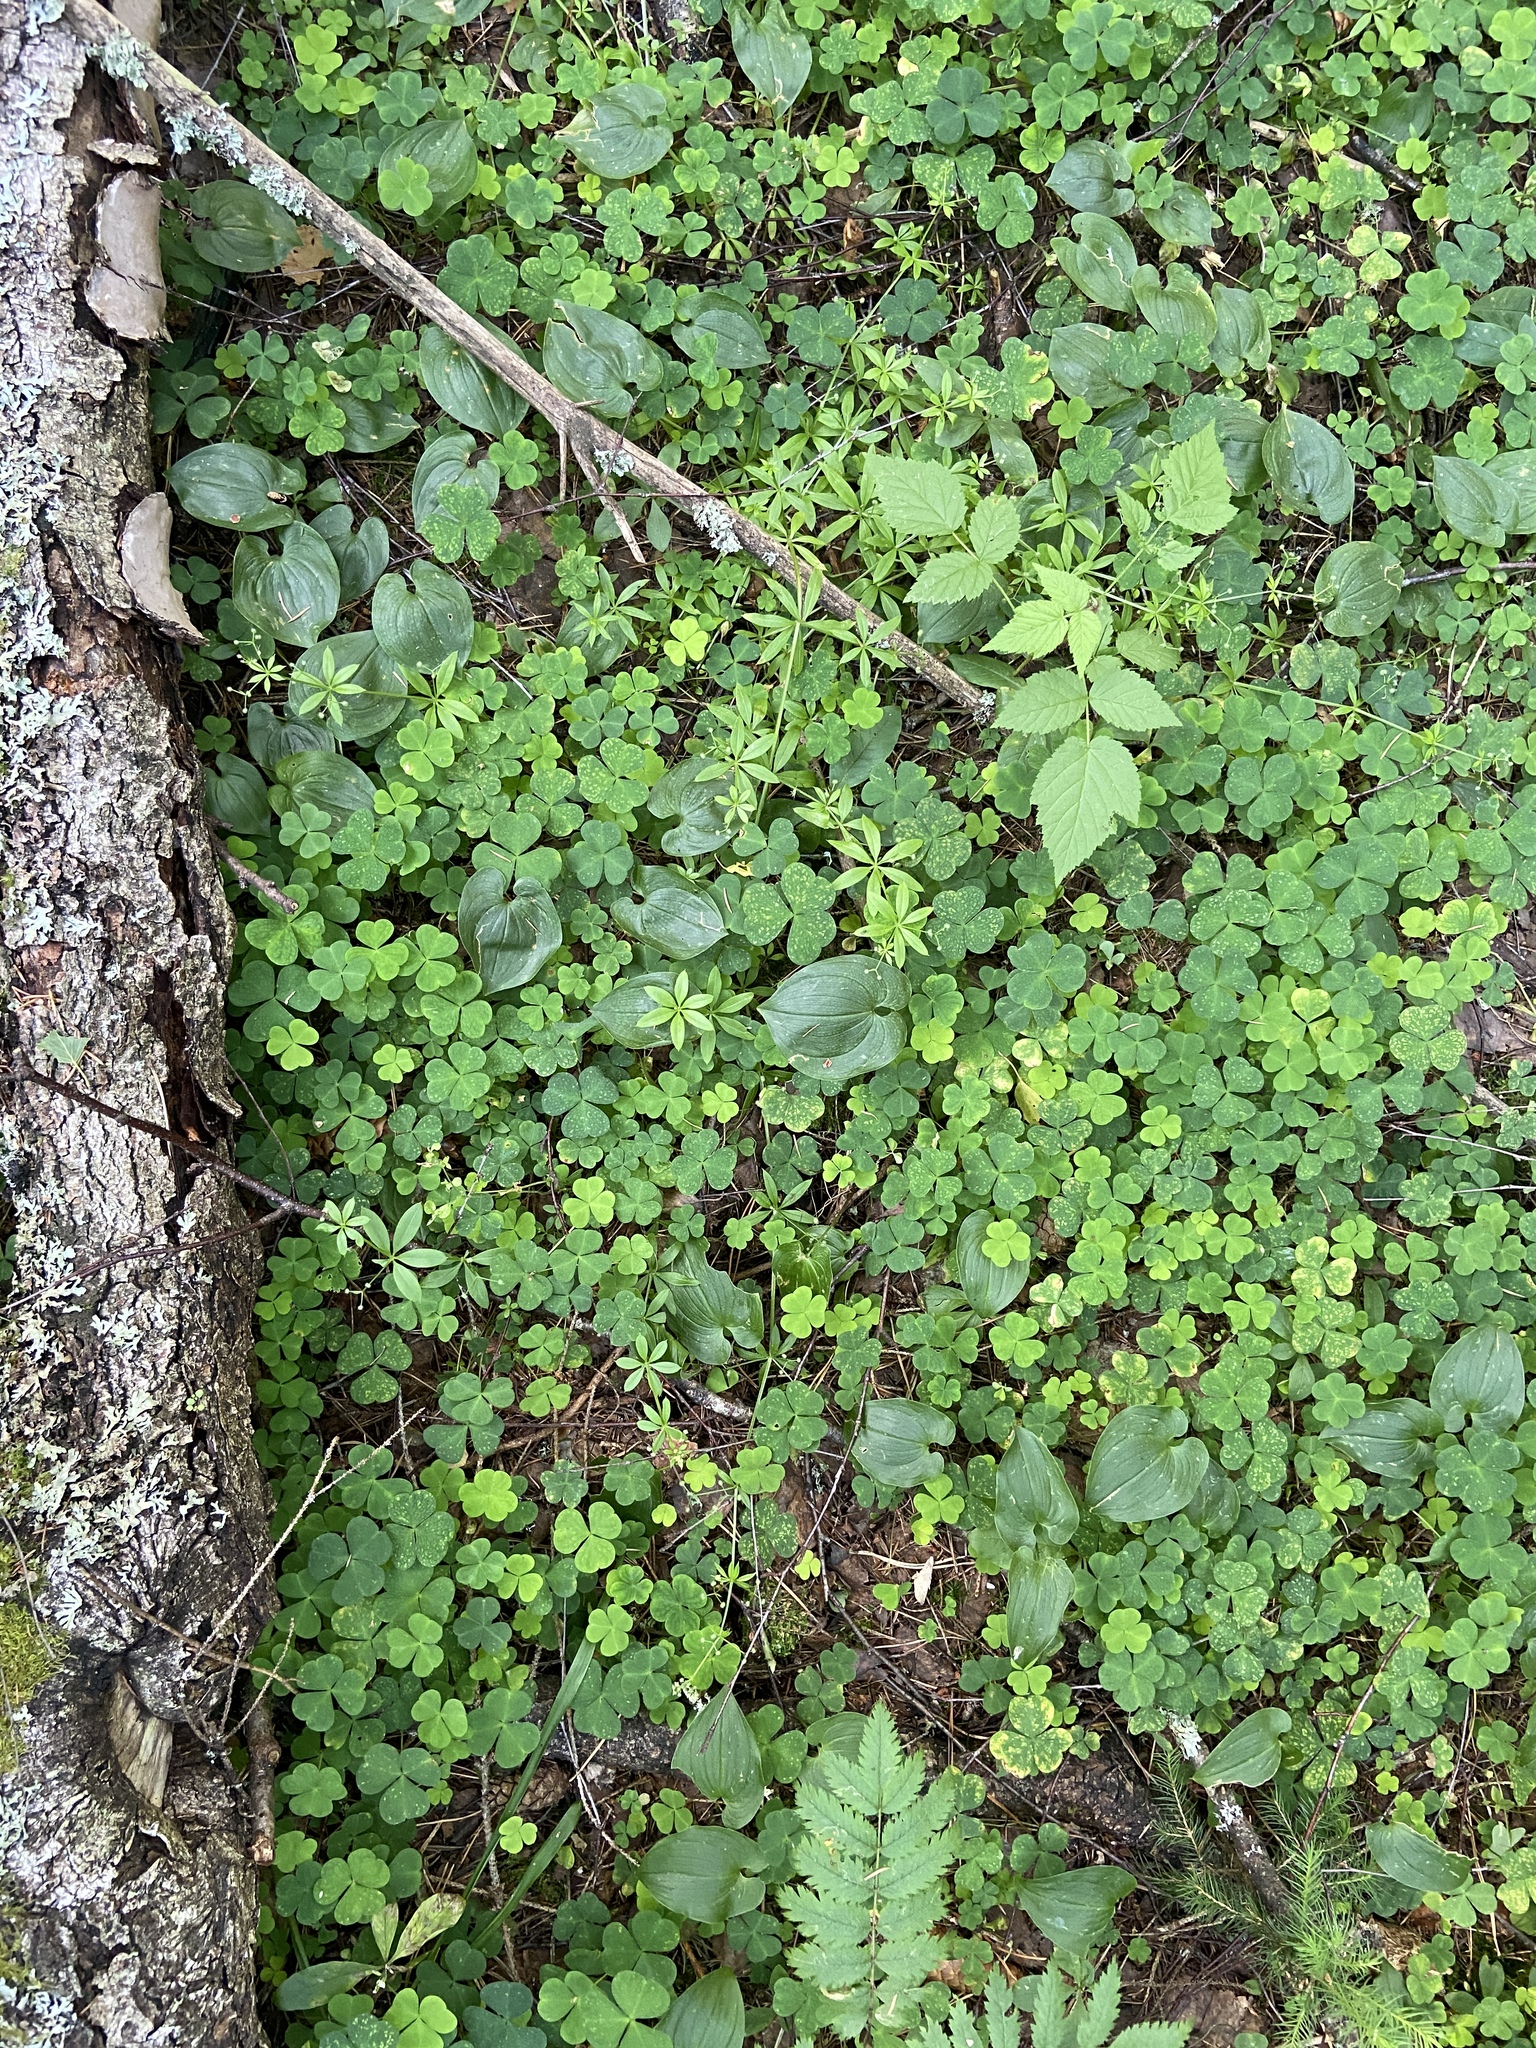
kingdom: Plantae
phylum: Tracheophyta
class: Liliopsida
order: Asparagales
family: Asparagaceae
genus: Maianthemum
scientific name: Maianthemum bifolium
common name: May lily
